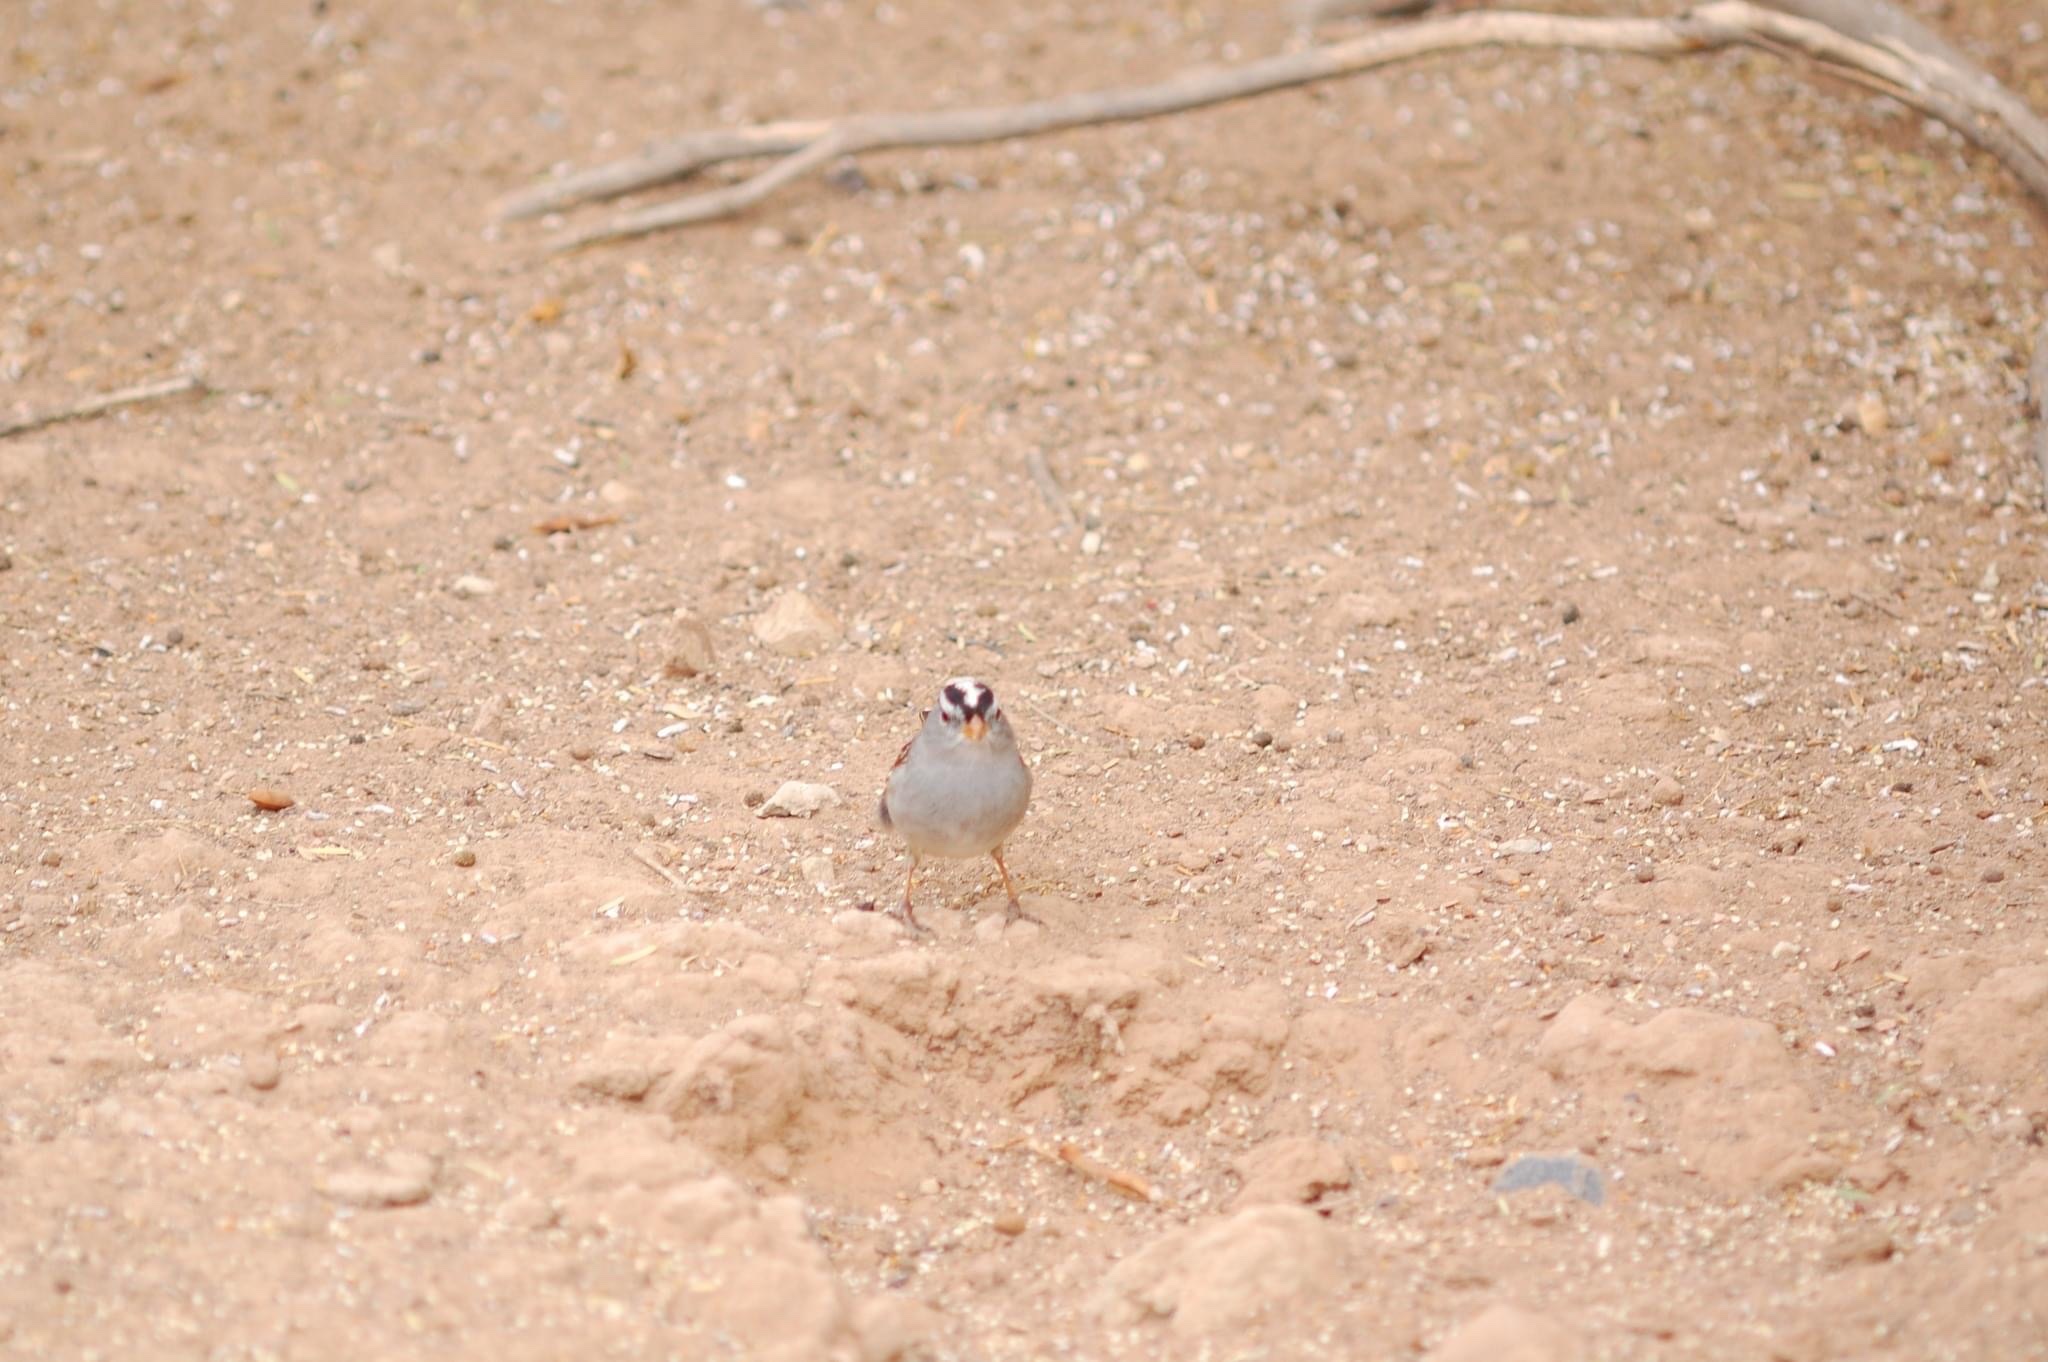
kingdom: Animalia
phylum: Chordata
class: Aves
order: Passeriformes
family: Passerellidae
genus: Zonotrichia
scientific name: Zonotrichia leucophrys
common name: White-crowned sparrow
